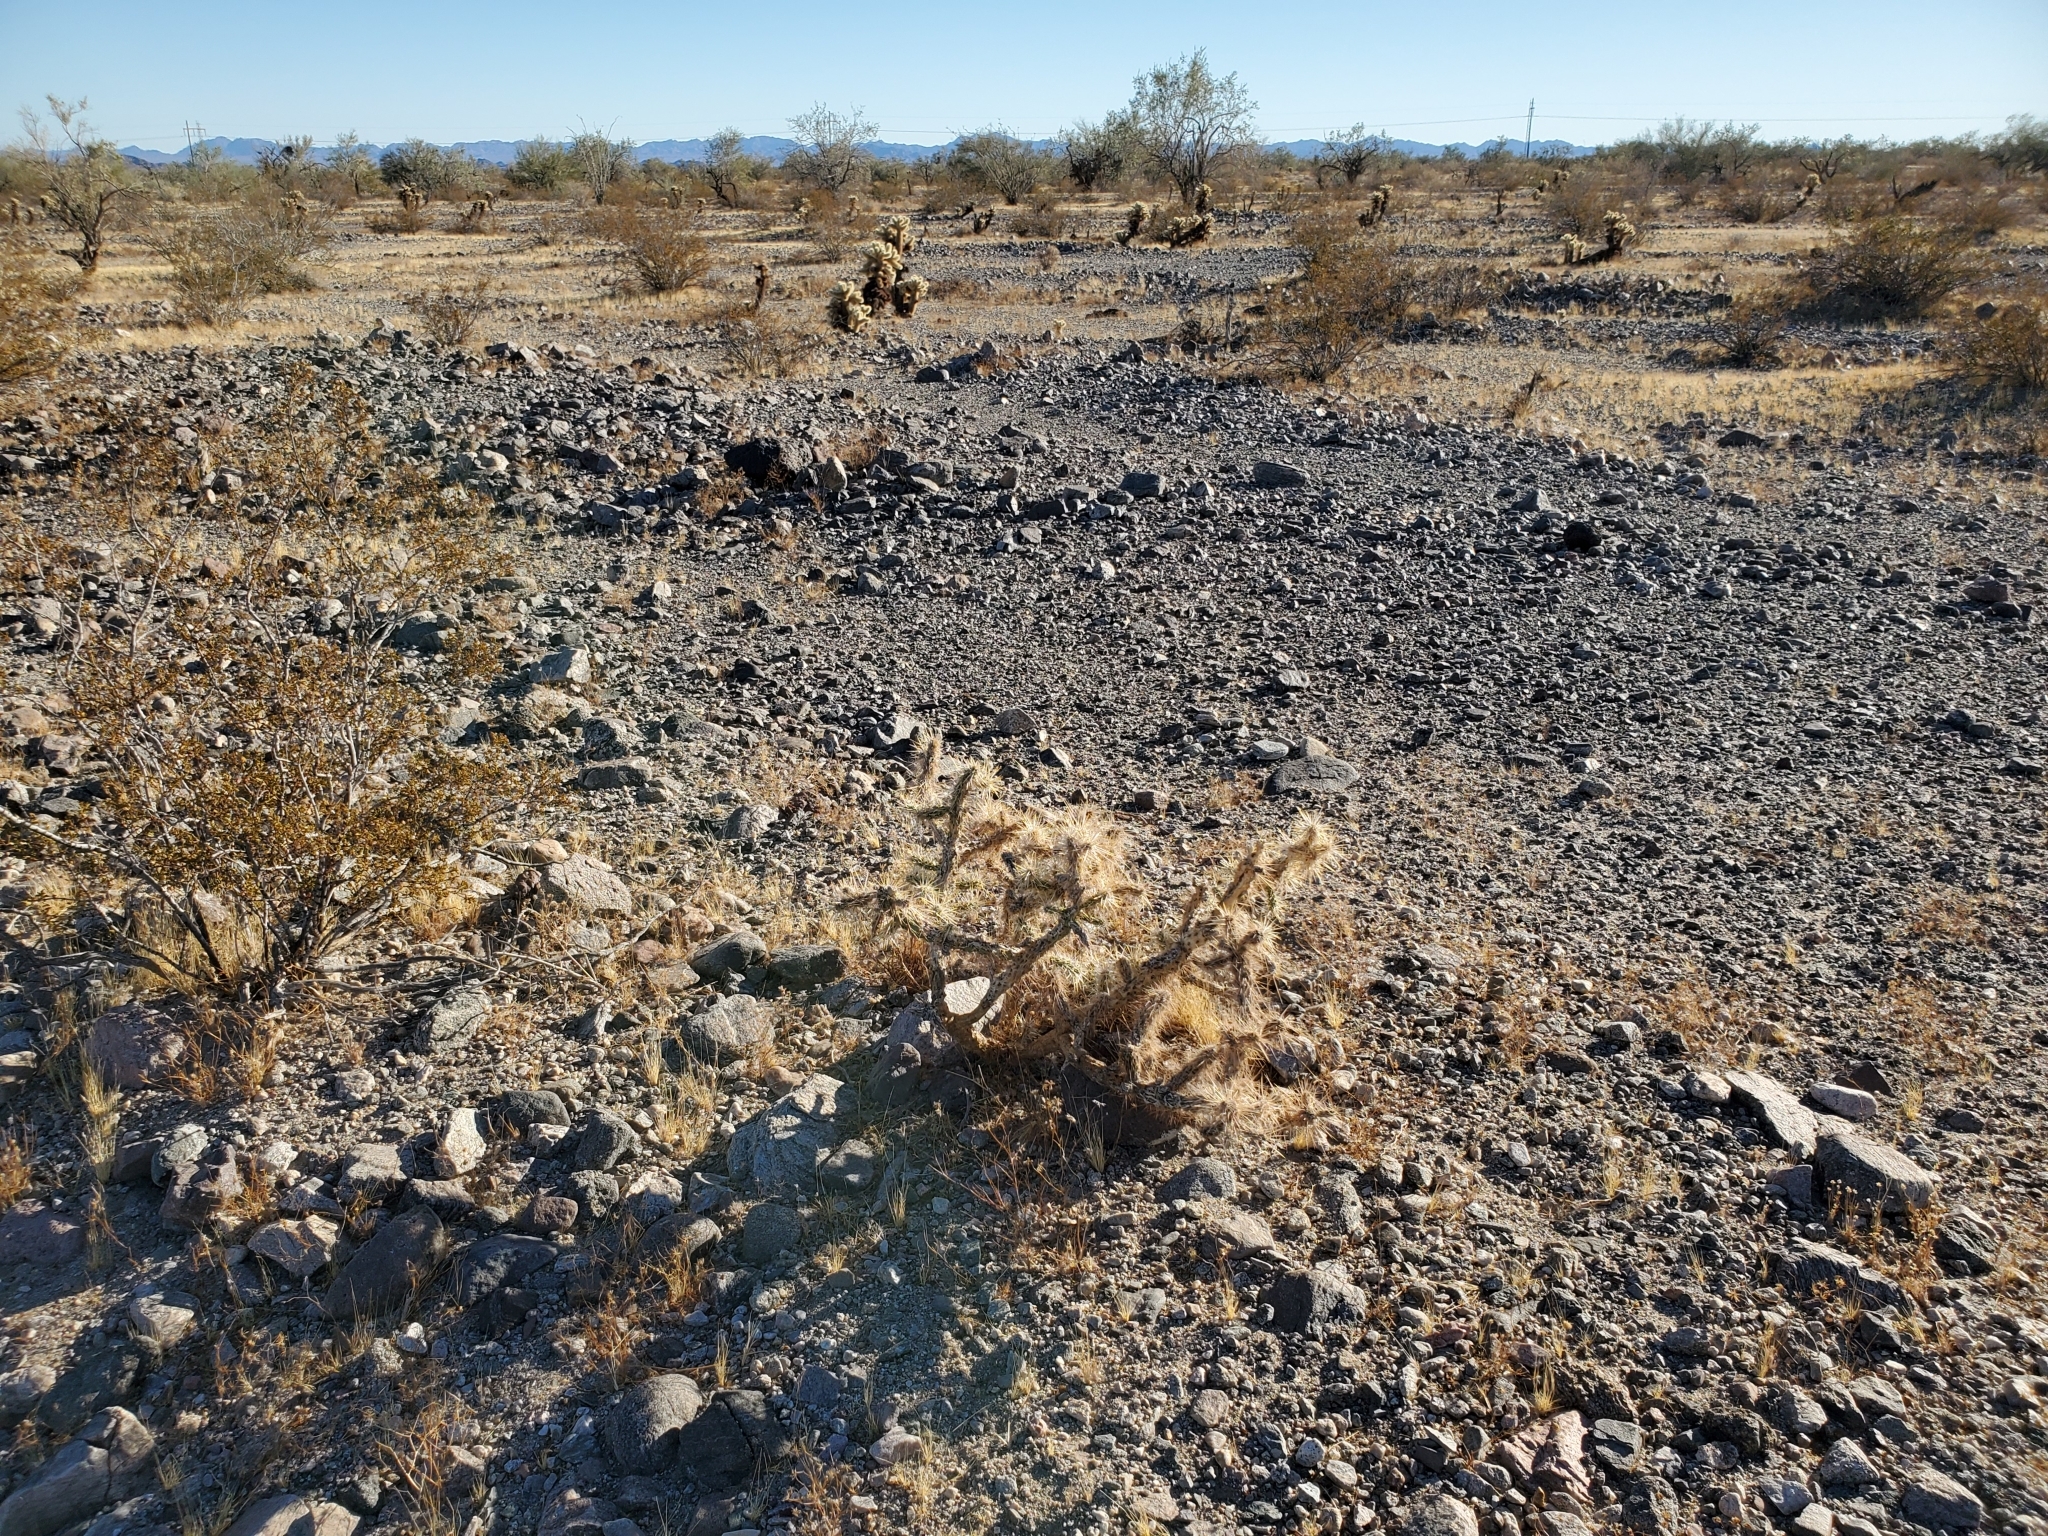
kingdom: Plantae
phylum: Tracheophyta
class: Magnoliopsida
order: Caryophyllales
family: Cactaceae
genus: Cylindropuntia
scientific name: Cylindropuntia echinocarpa
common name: Ground cholla
